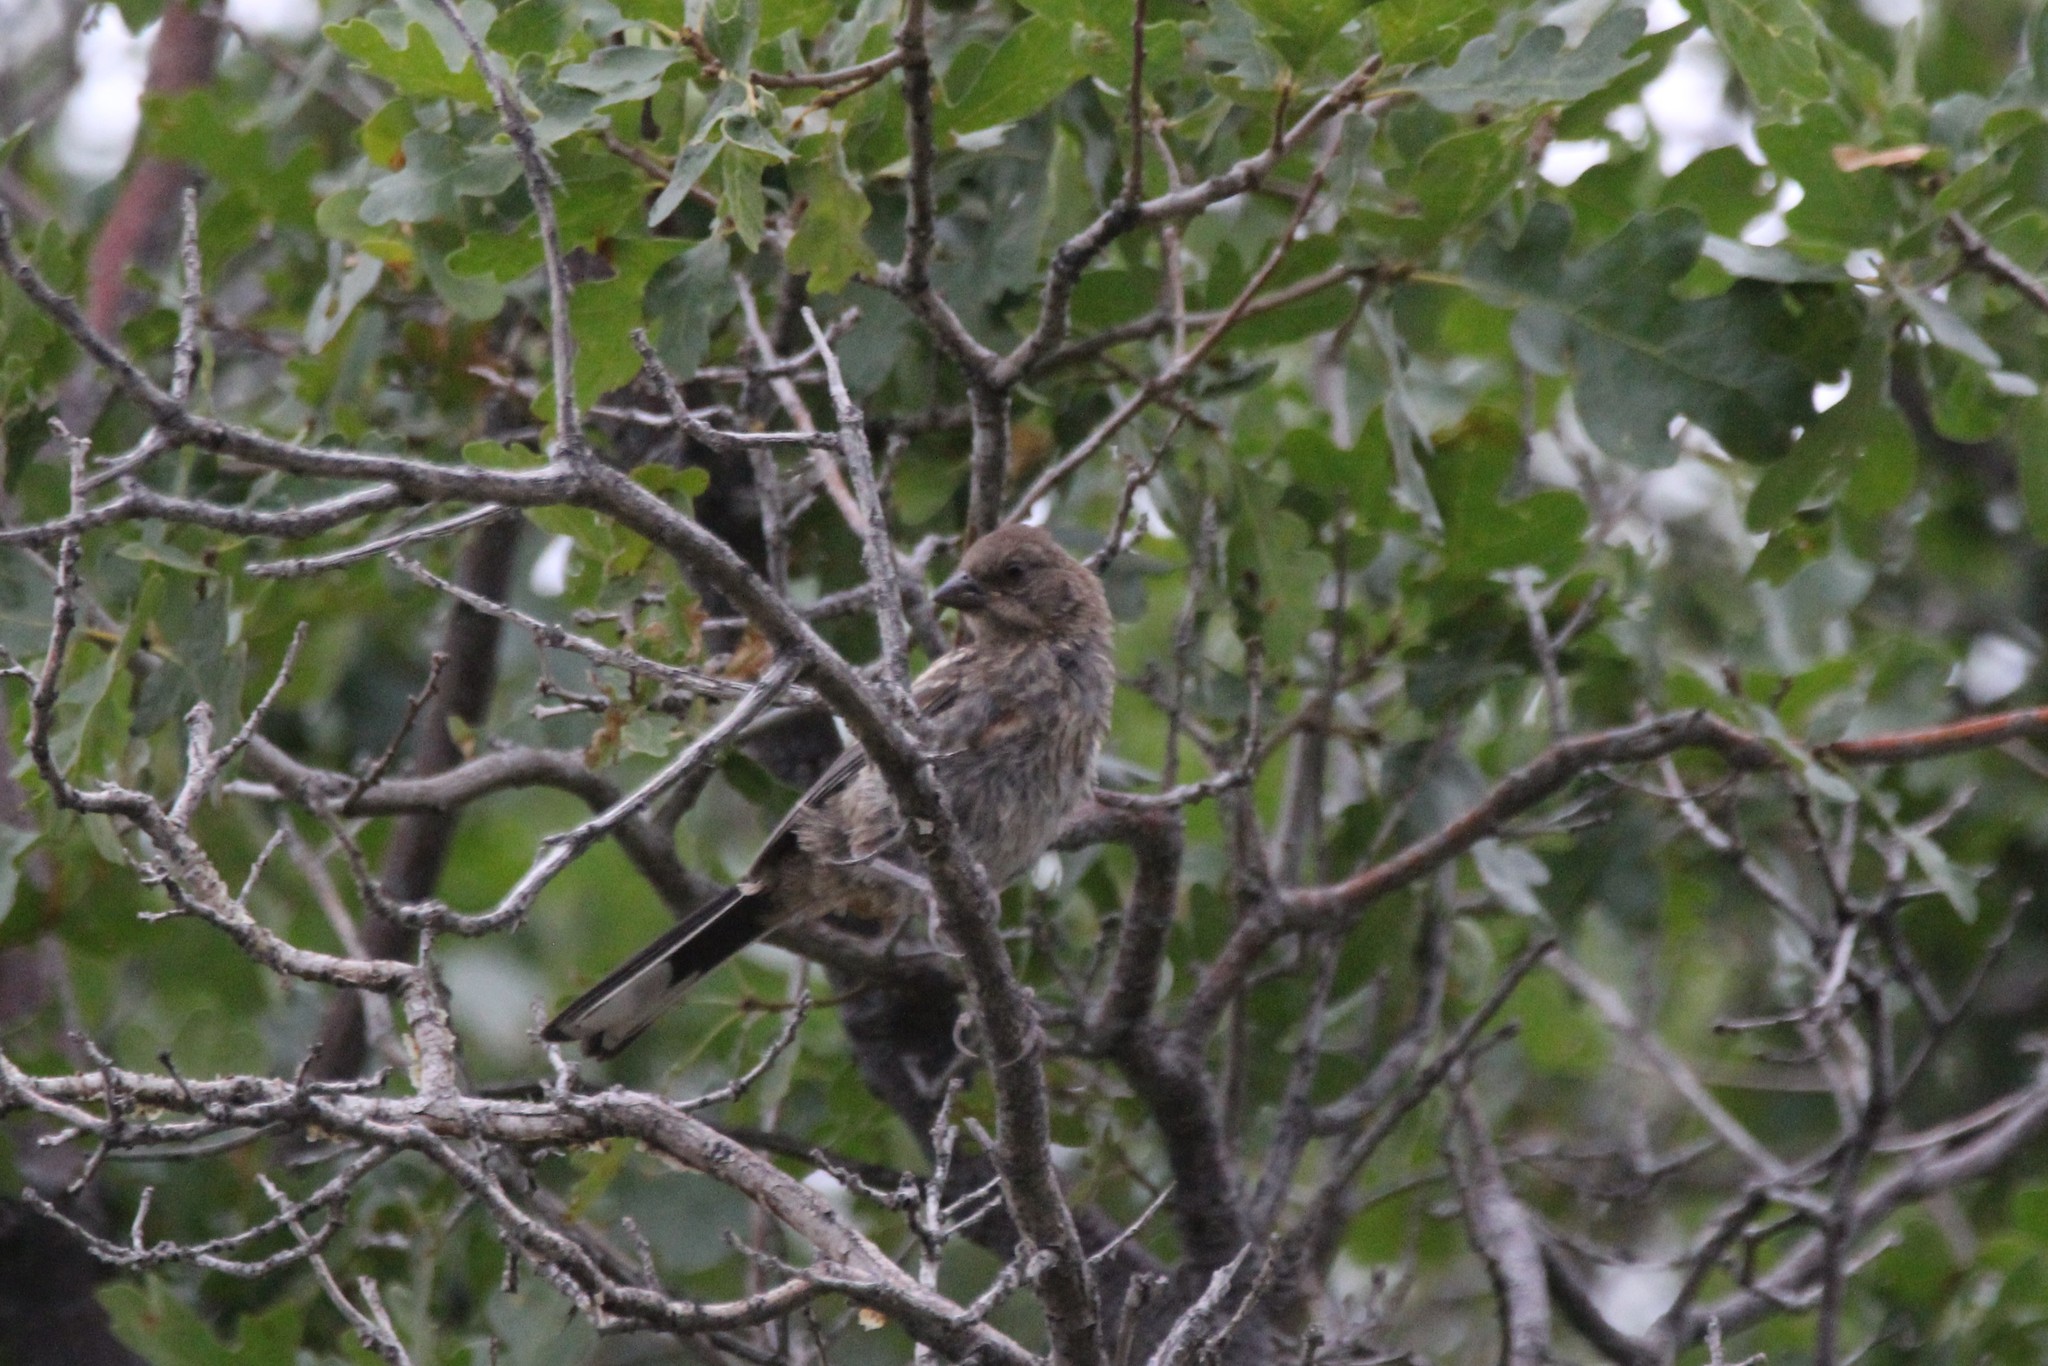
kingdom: Animalia
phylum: Chordata
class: Aves
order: Passeriformes
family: Passerellidae
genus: Pipilo
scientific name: Pipilo maculatus
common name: Spotted towhee
